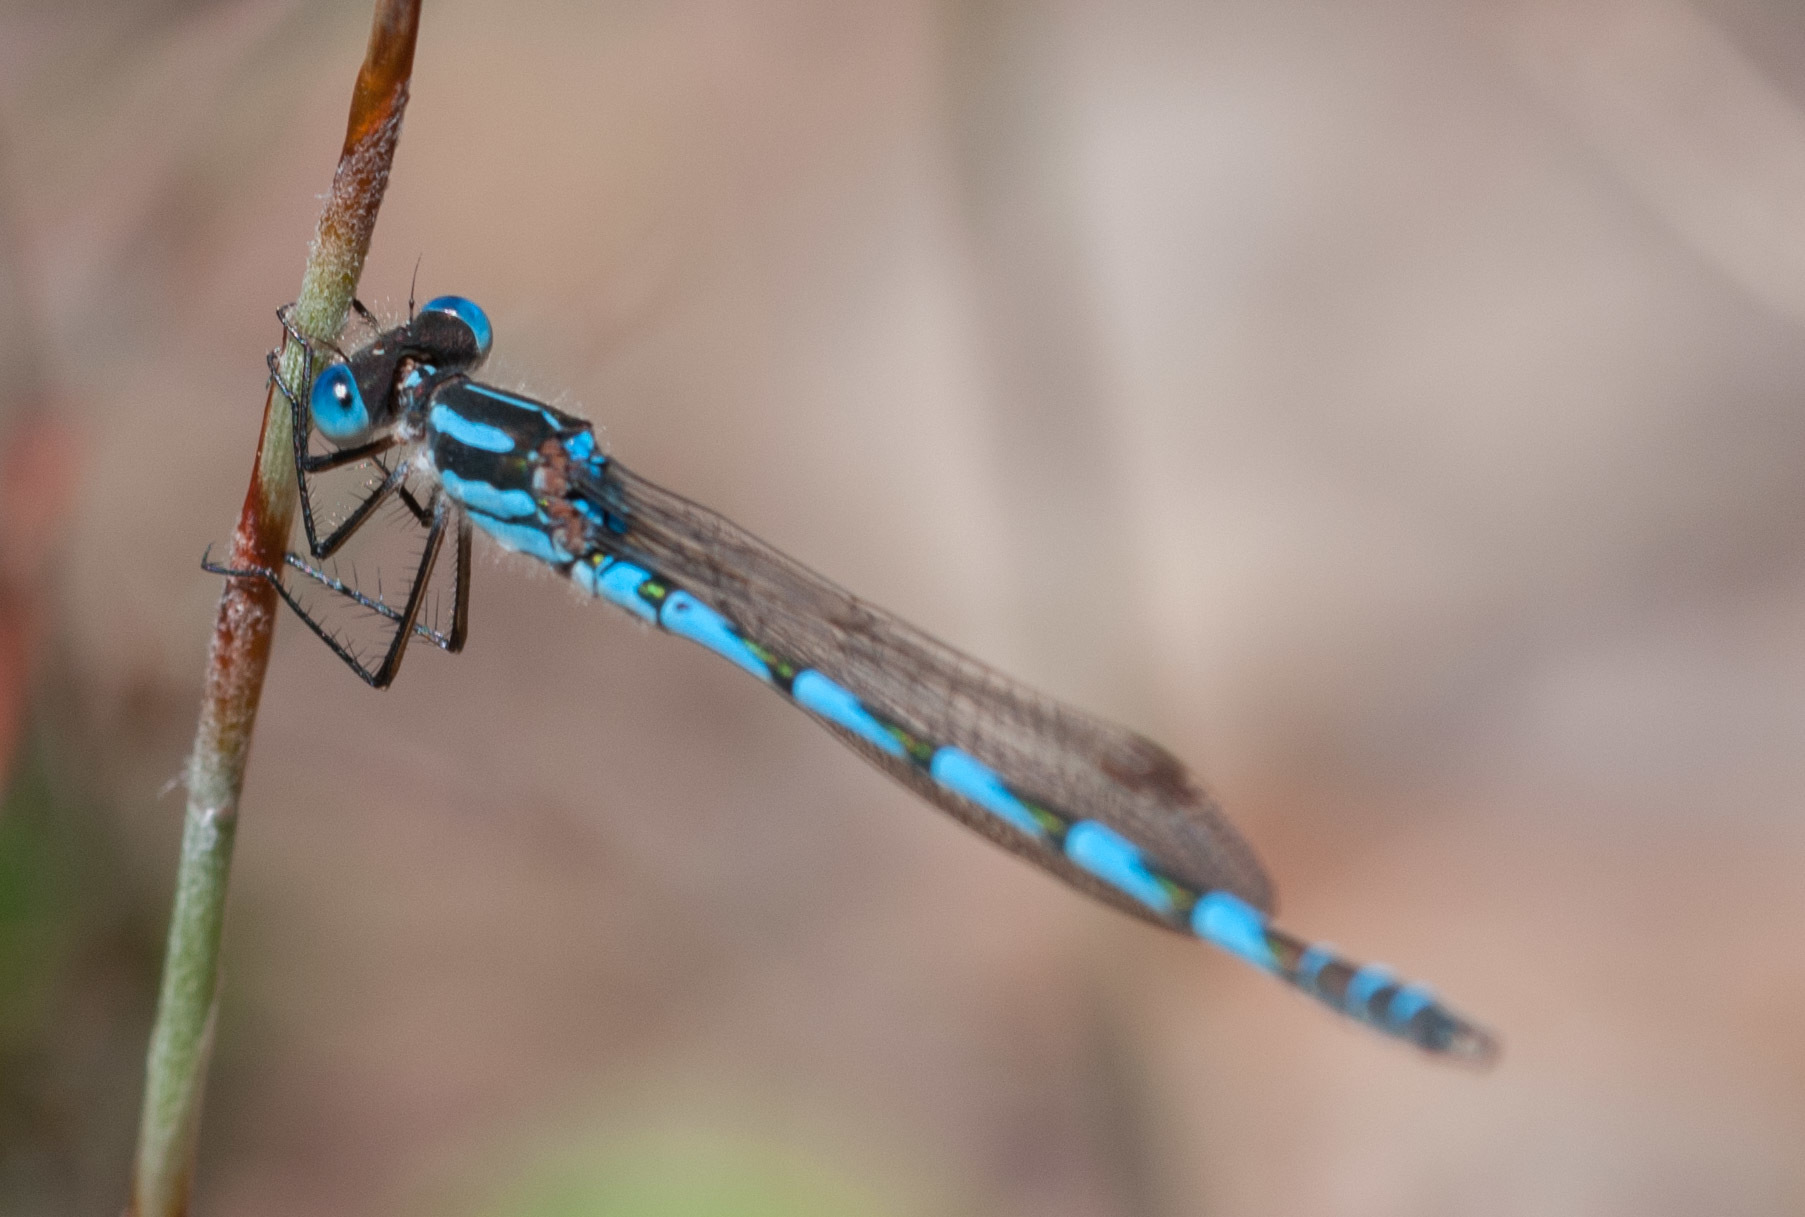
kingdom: Animalia
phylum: Arthropoda
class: Insecta
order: Odonata
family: Lestidae
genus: Austrolestes
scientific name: Austrolestes annulosus
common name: Blue ringtail
